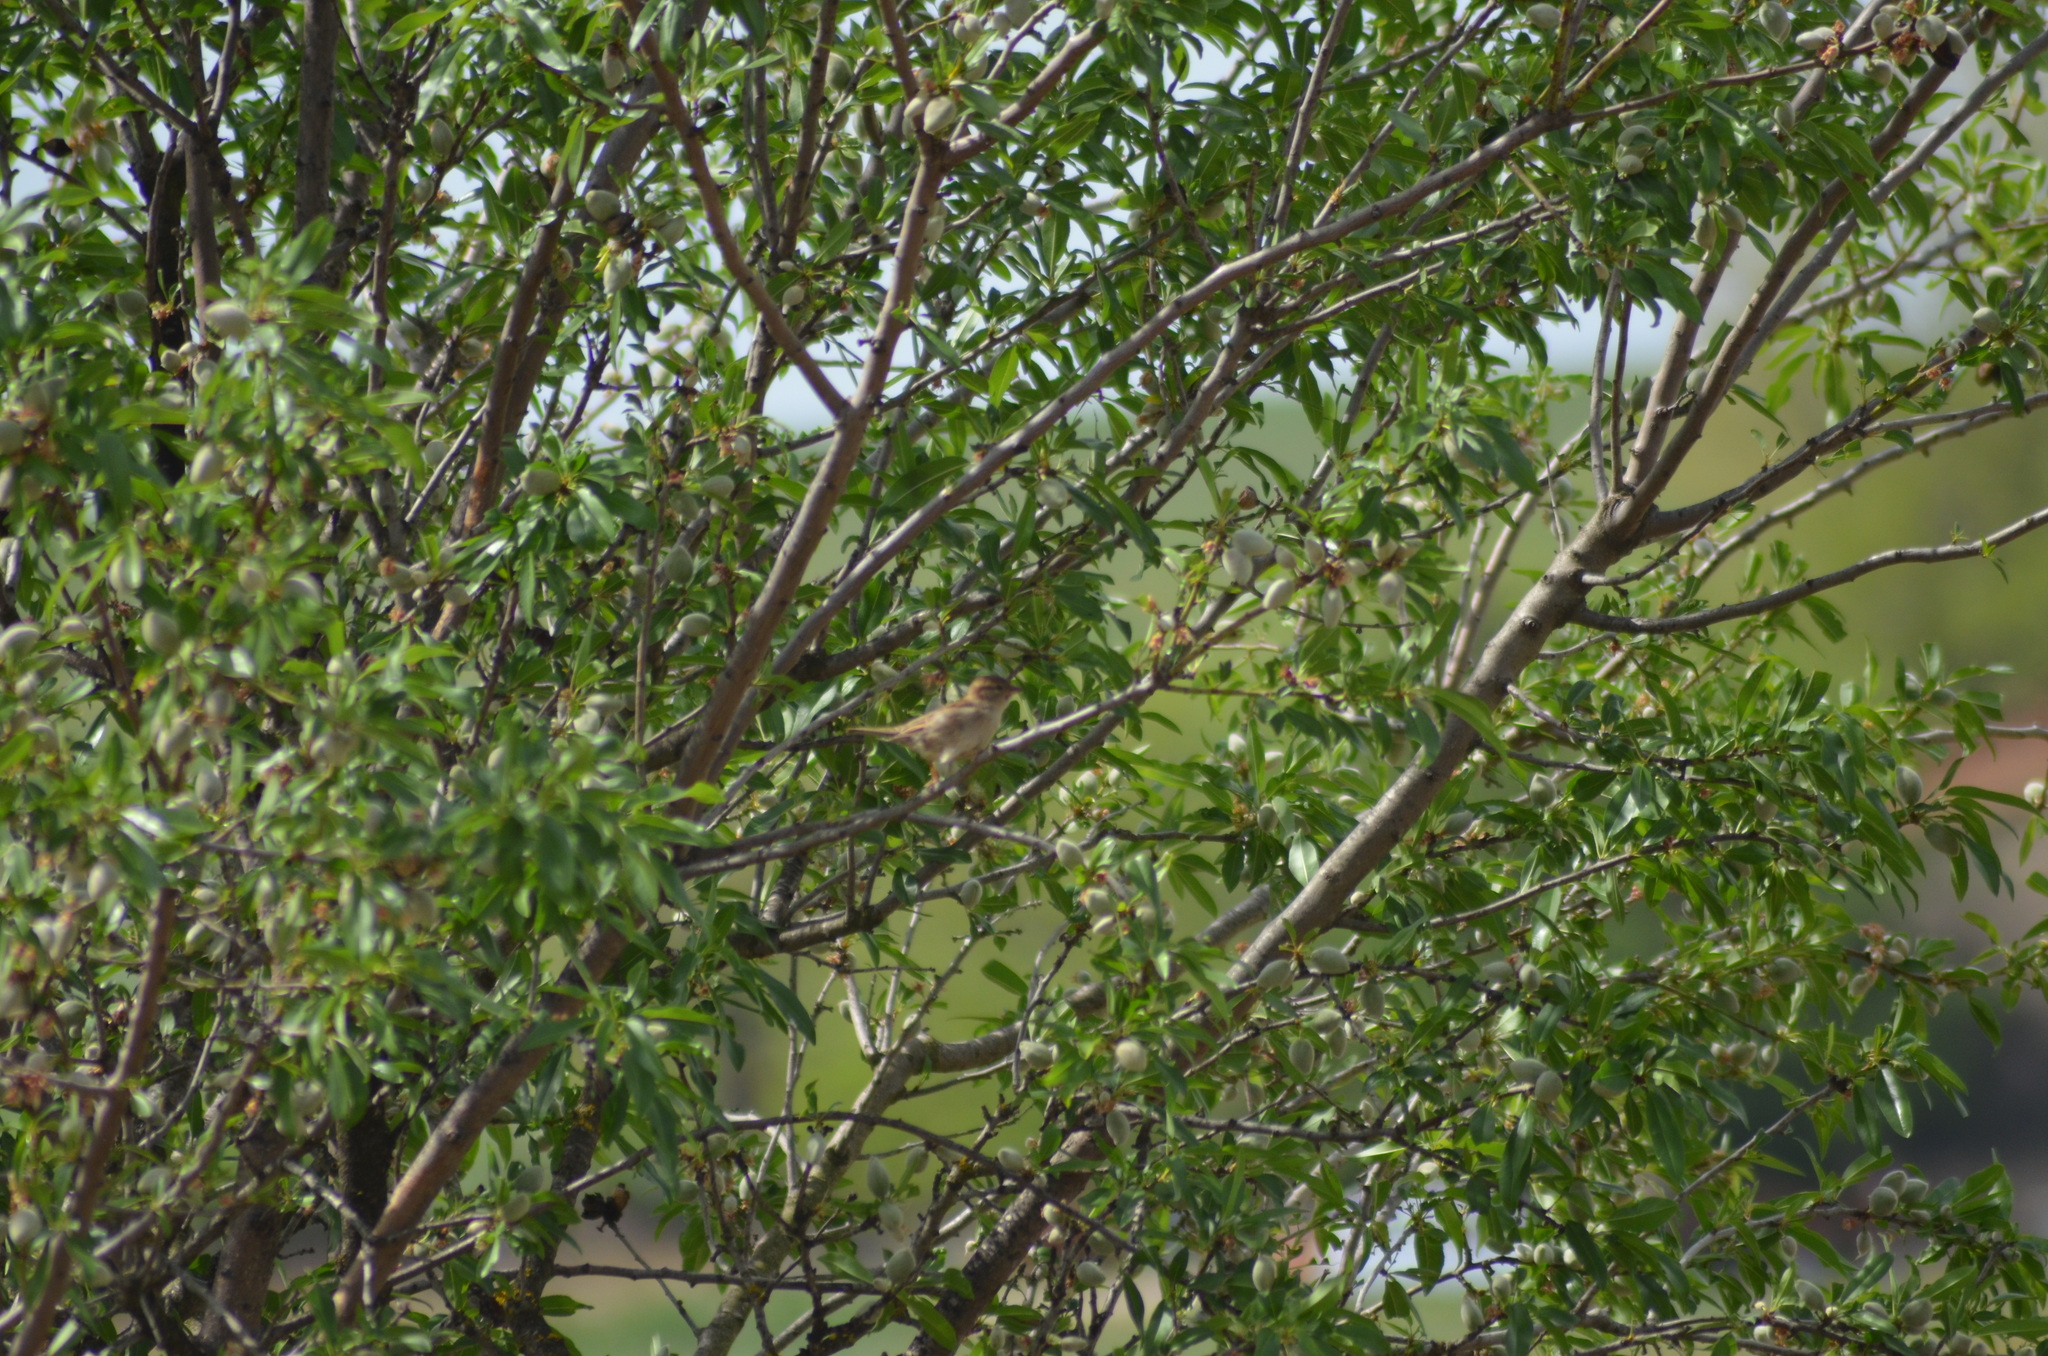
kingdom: Animalia
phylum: Chordata
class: Aves
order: Passeriformes
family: Passeridae
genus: Passer
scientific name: Passer domesticus
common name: House sparrow
